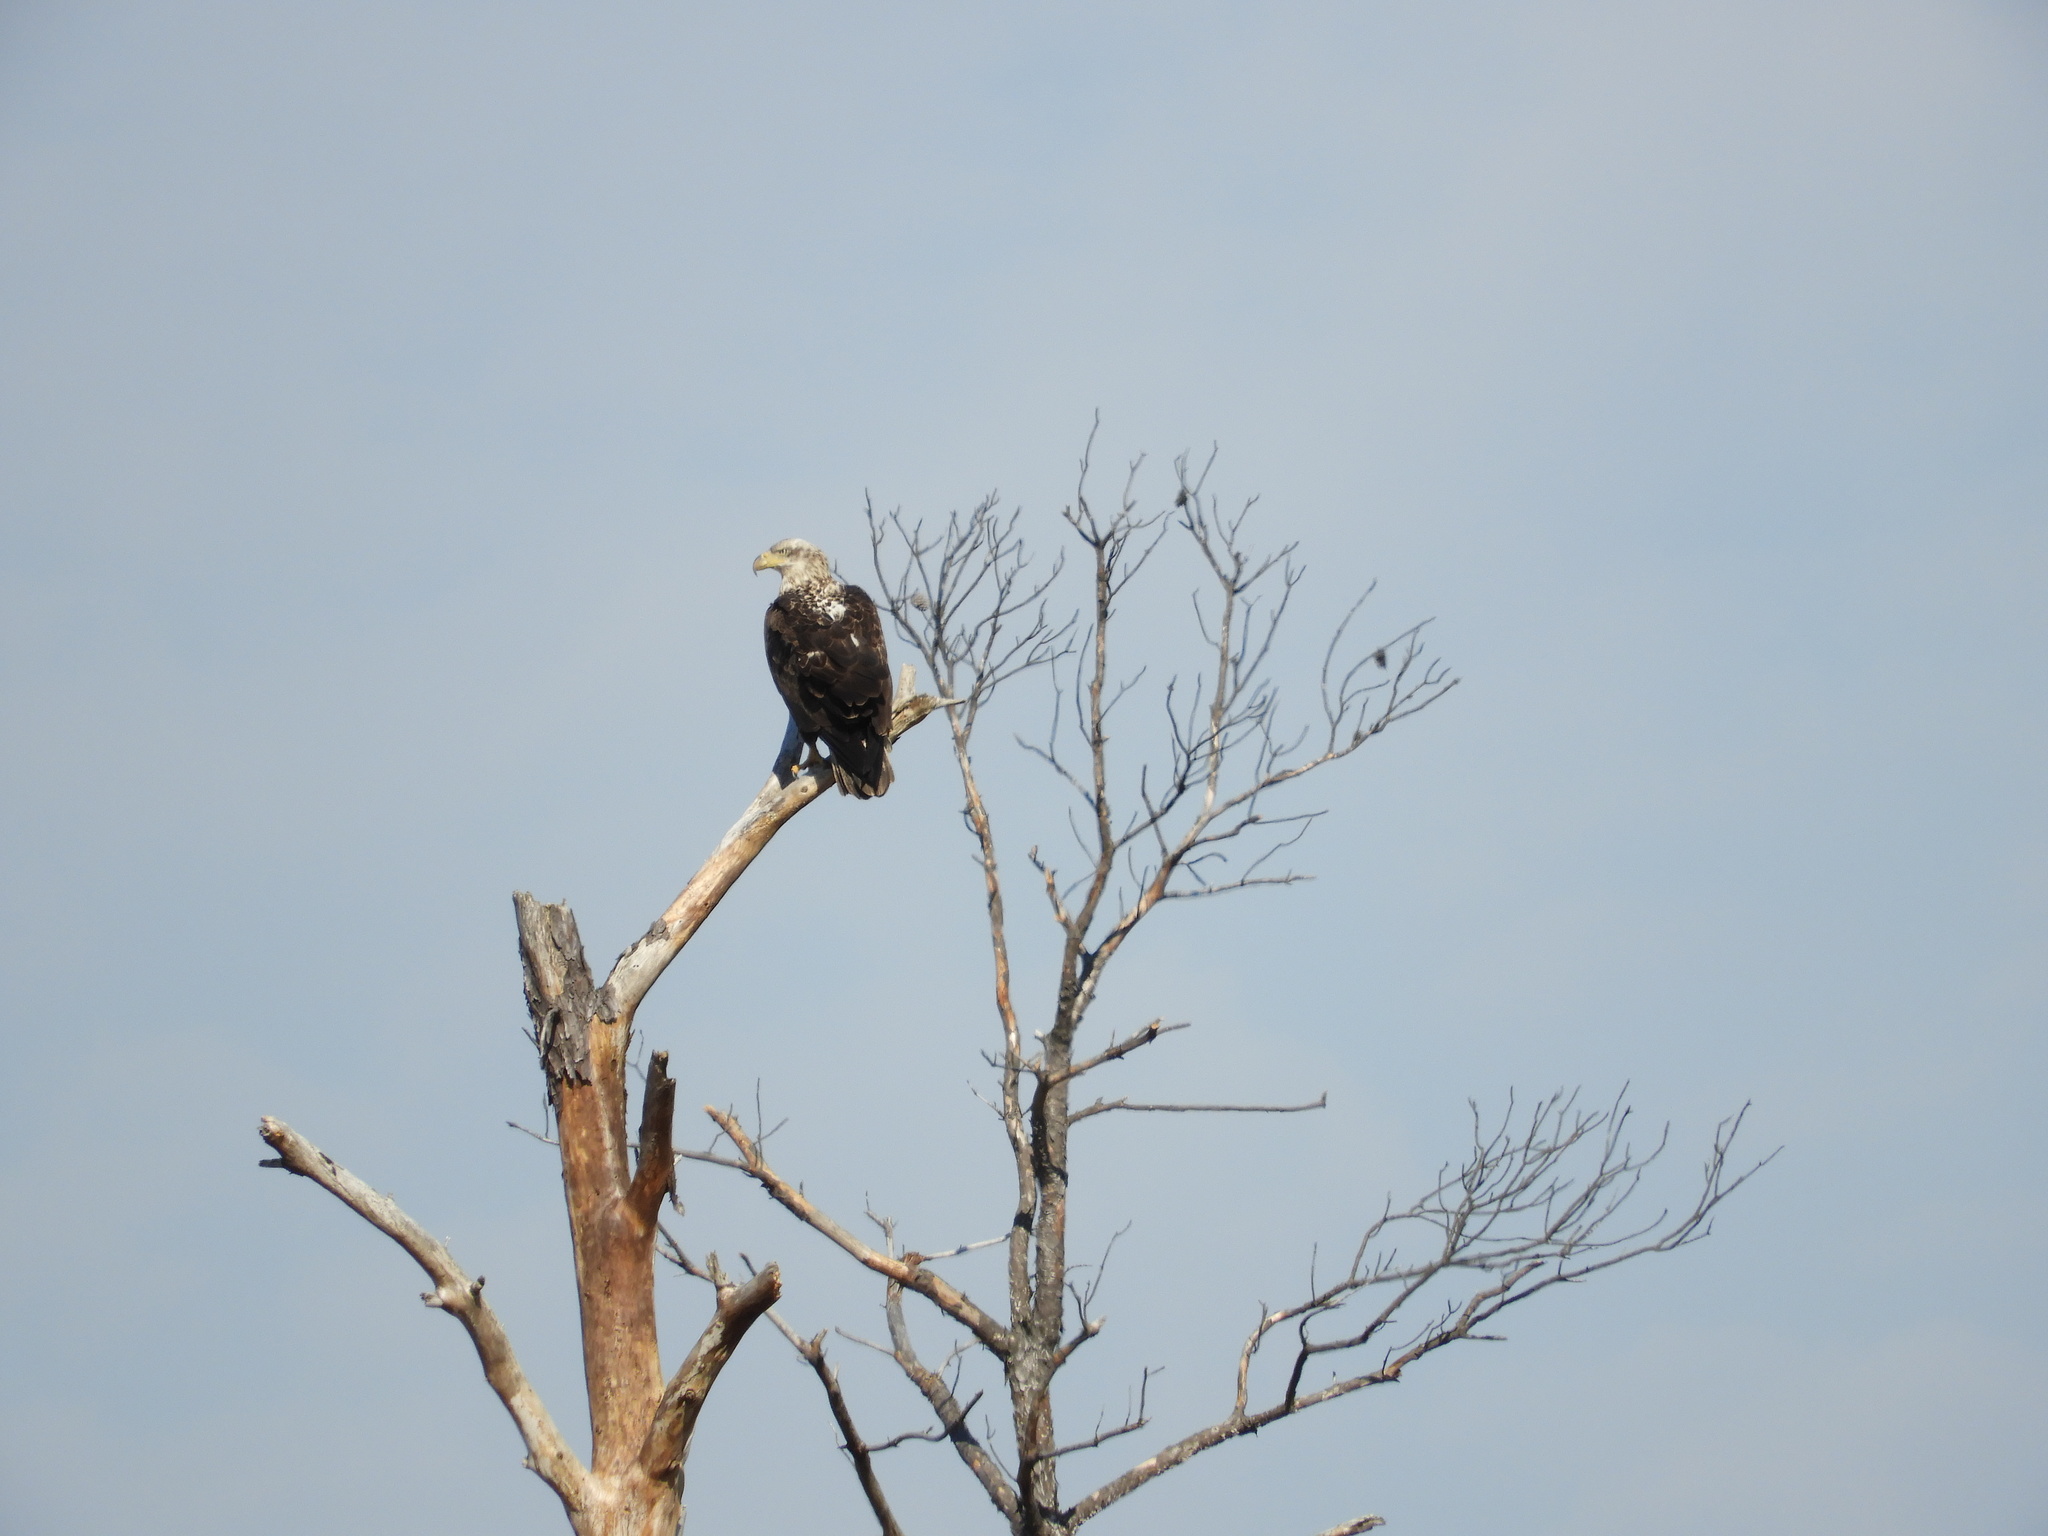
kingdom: Animalia
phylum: Chordata
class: Aves
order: Accipitriformes
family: Accipitridae
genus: Haliaeetus
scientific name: Haliaeetus leucocephalus
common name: Bald eagle
